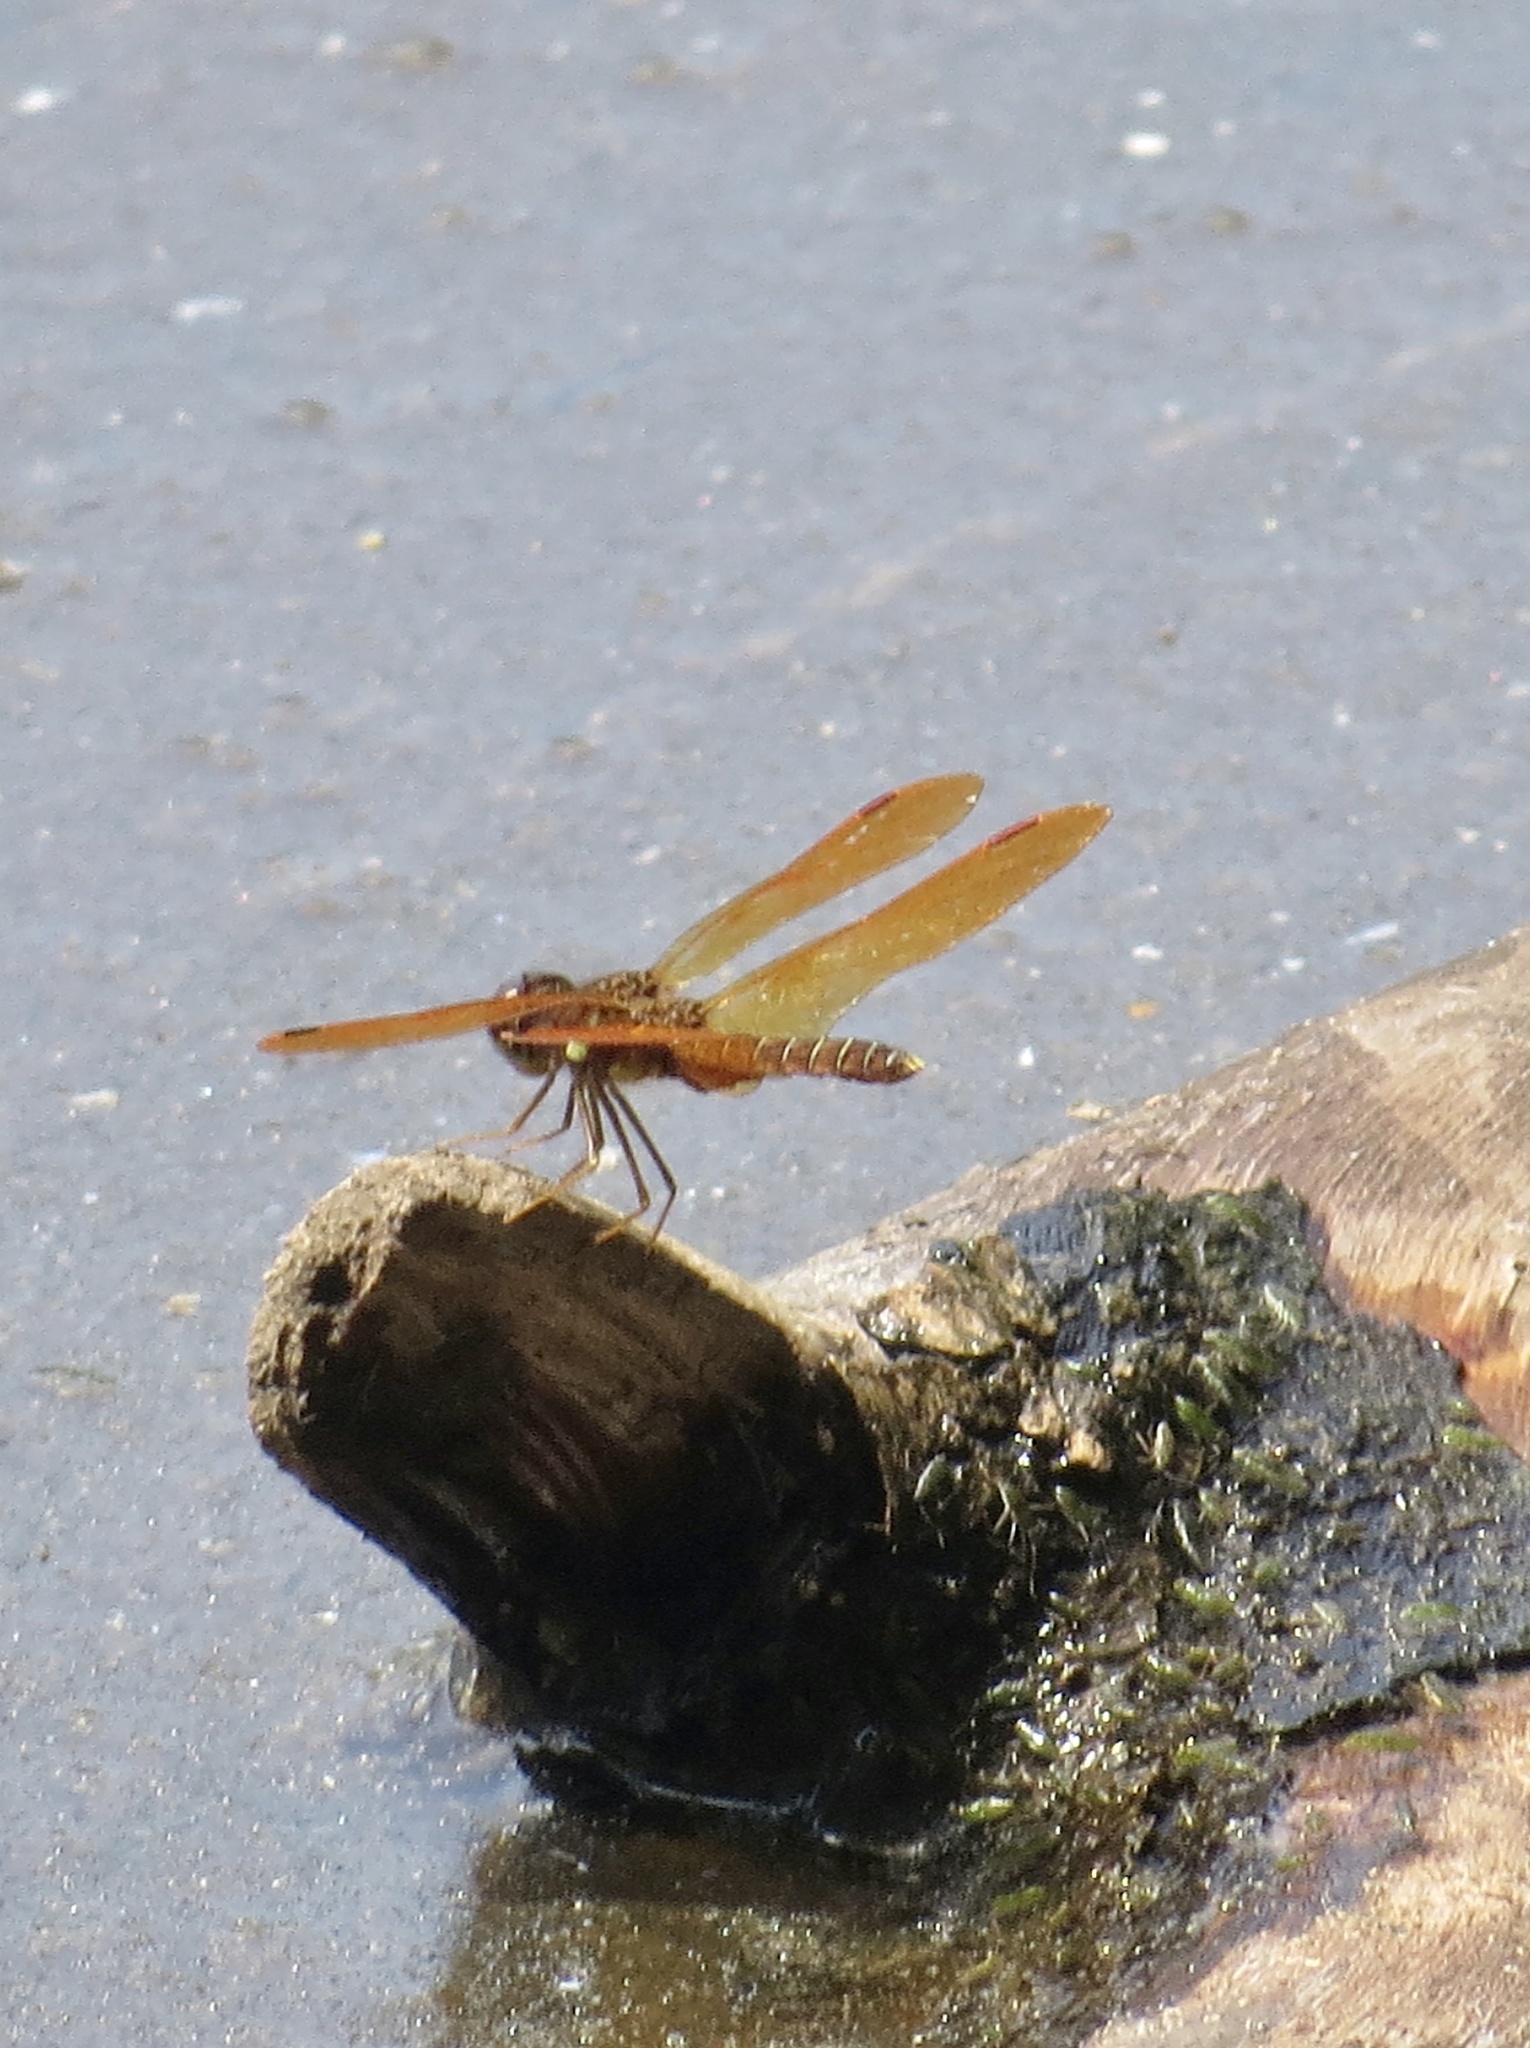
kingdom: Animalia
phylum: Arthropoda
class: Insecta
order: Odonata
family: Libellulidae
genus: Perithemis
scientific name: Perithemis tenera
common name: Eastern amberwing
